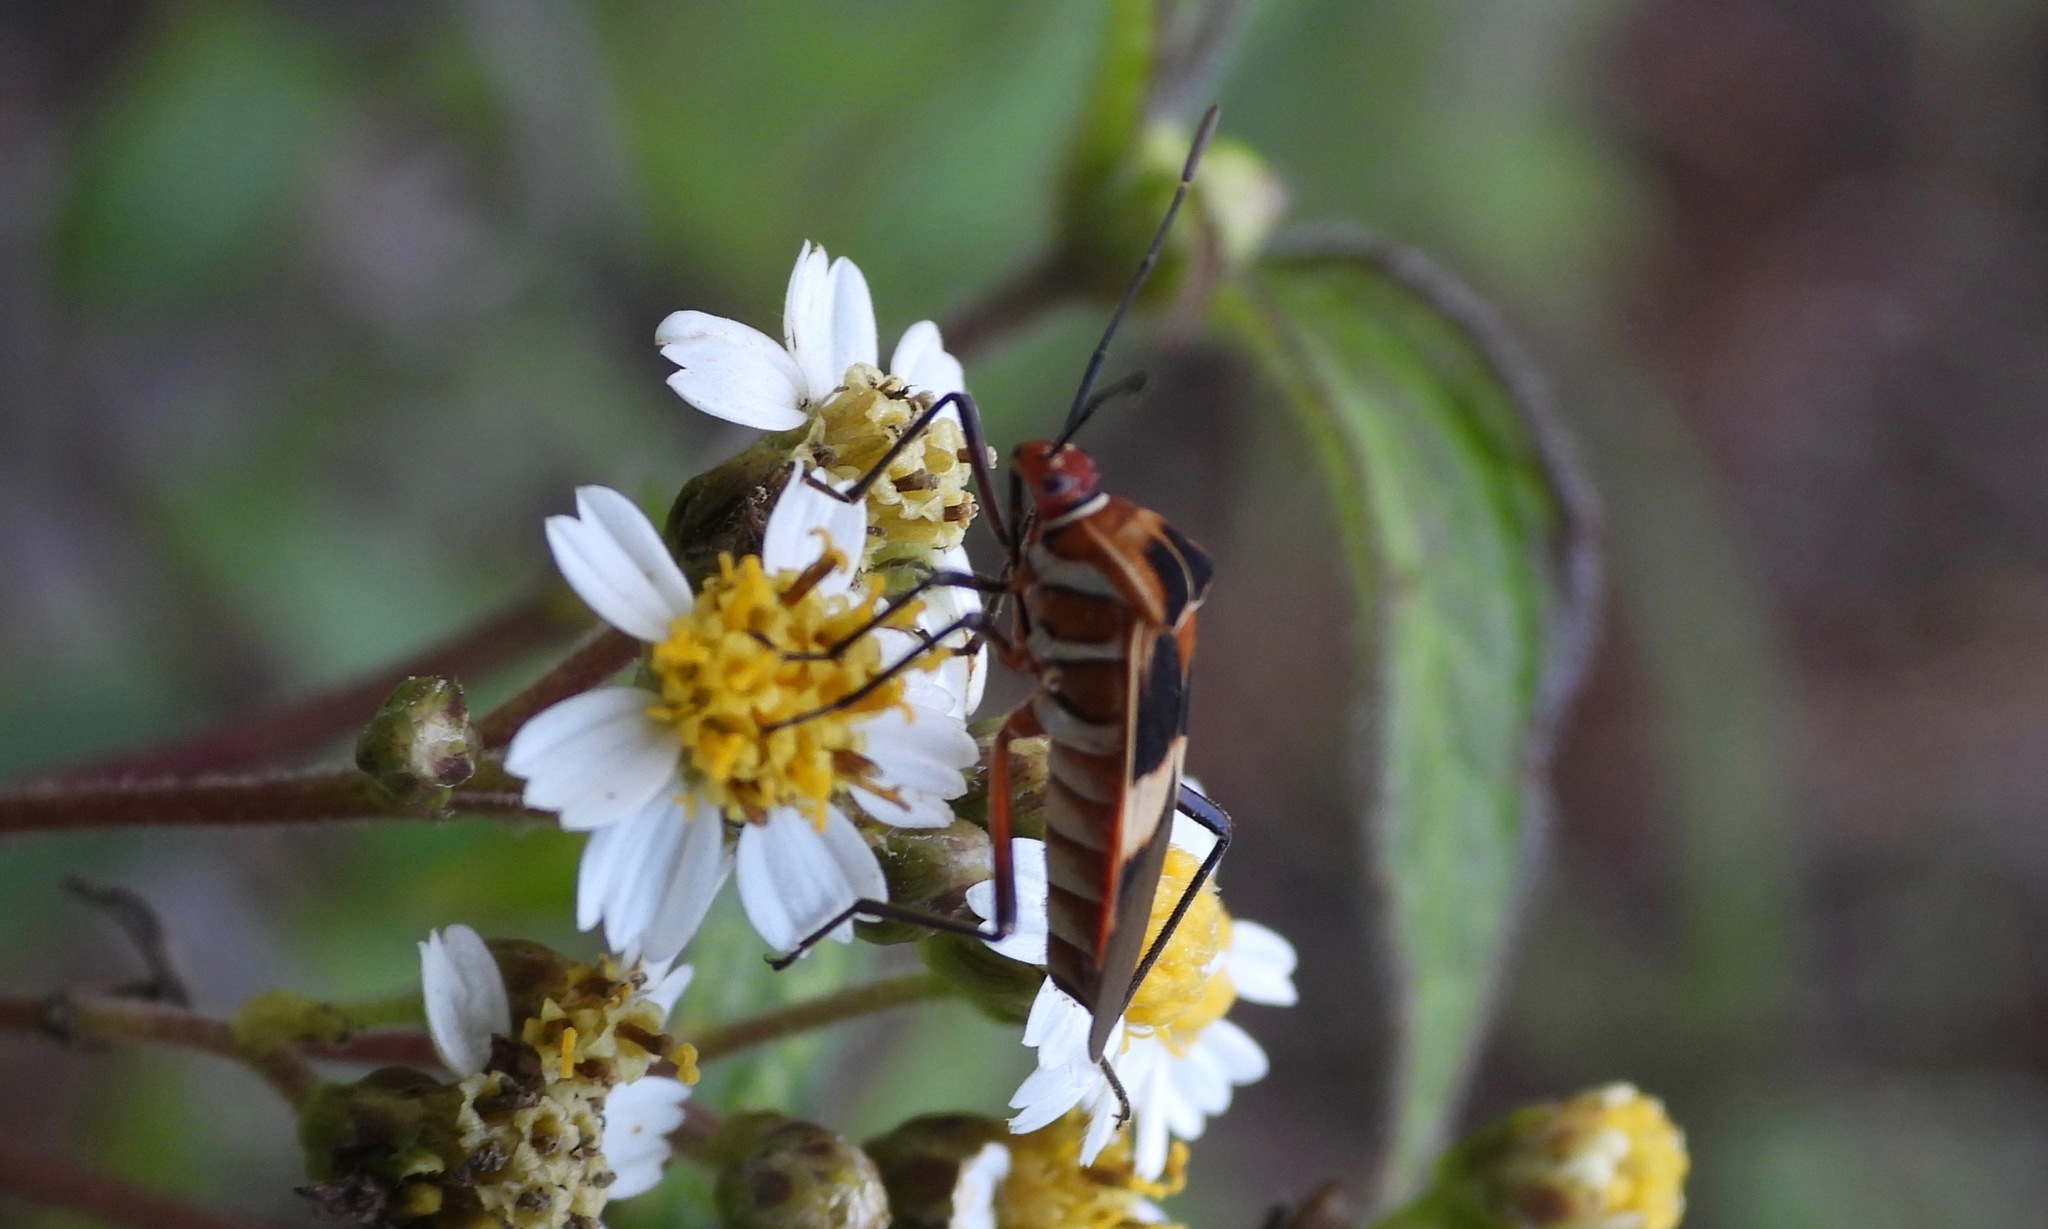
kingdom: Animalia
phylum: Arthropoda
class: Insecta
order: Hemiptera
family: Coreidae
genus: Hypselonotus
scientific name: Hypselonotus interruptus
